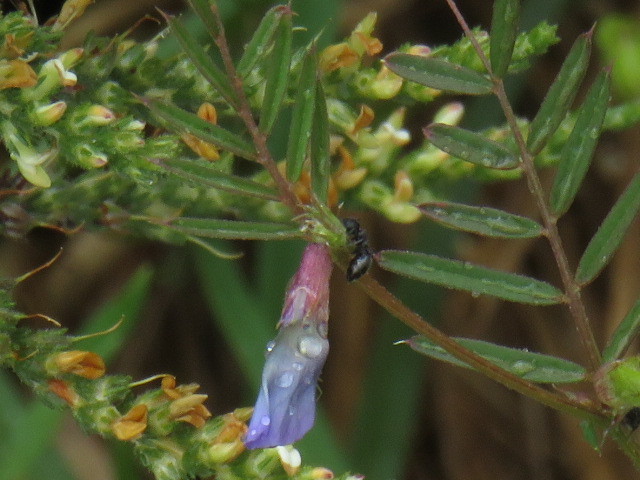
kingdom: Animalia
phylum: Arthropoda
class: Insecta
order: Hymenoptera
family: Formicidae
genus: Crematogaster
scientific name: Crematogaster peringueyi
